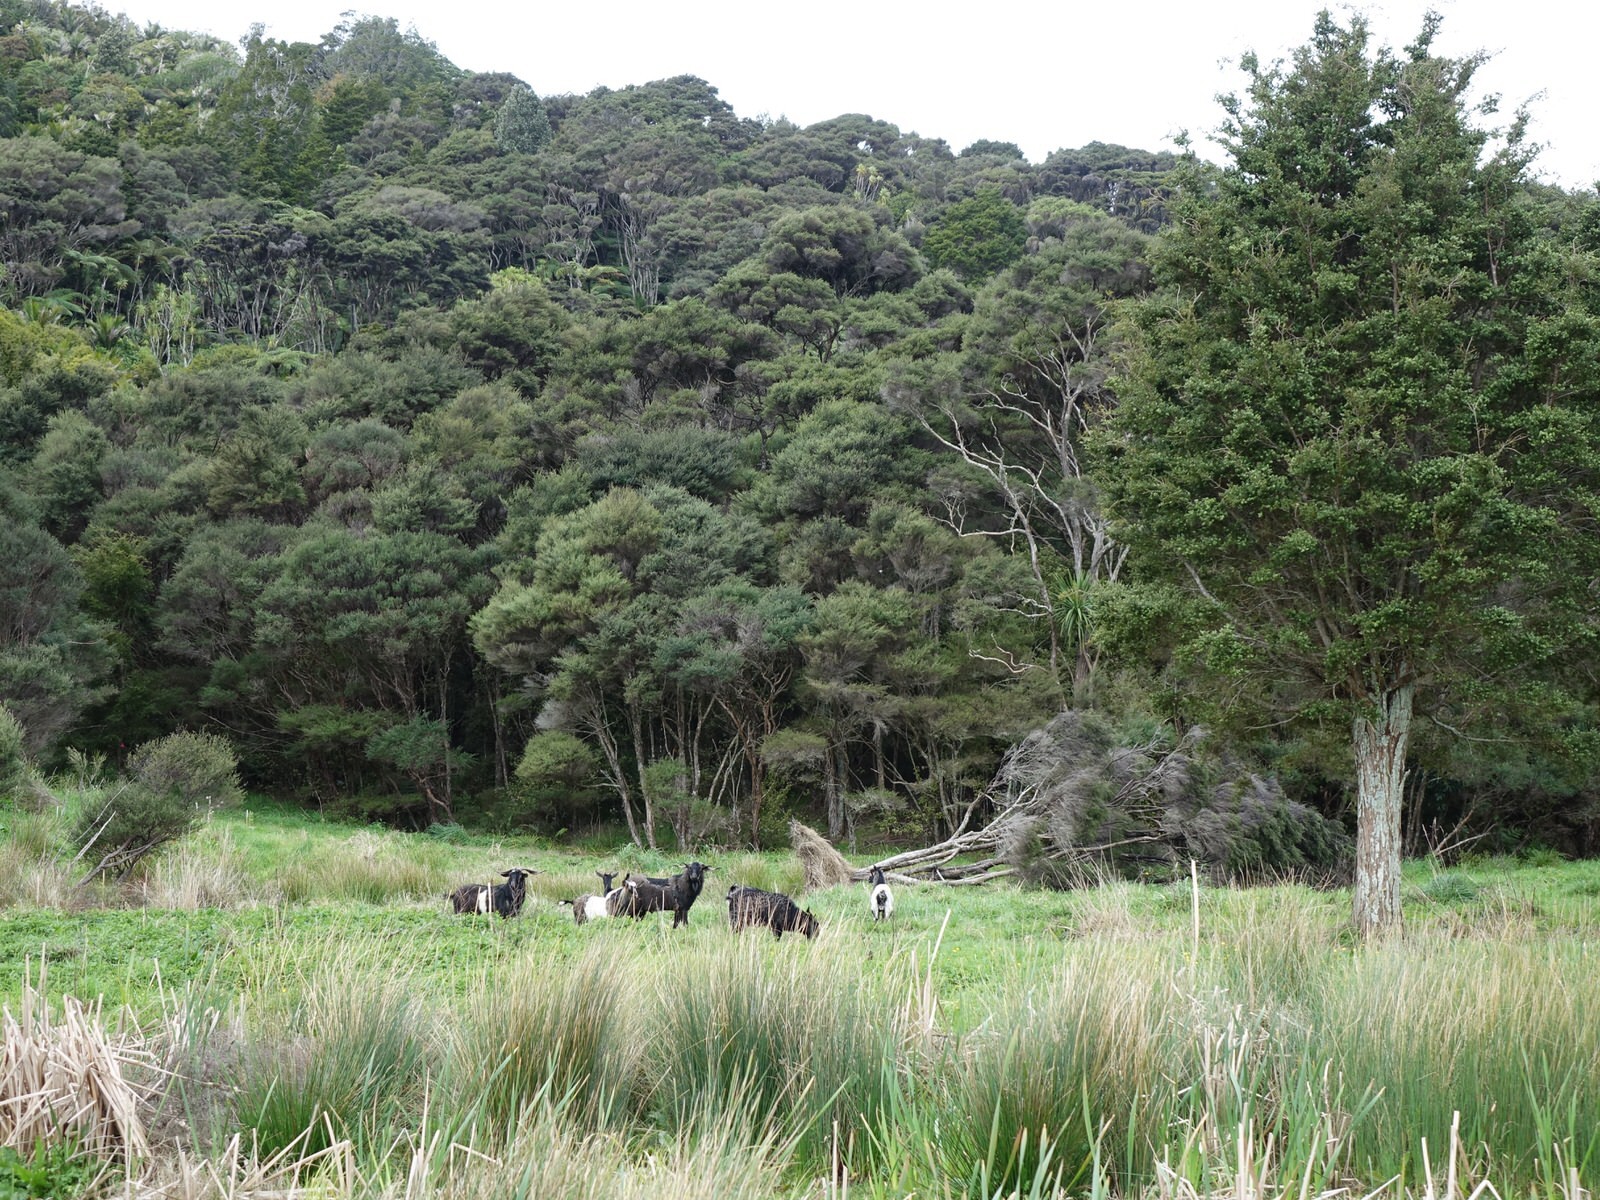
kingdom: Animalia
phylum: Chordata
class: Mammalia
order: Artiodactyla
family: Bovidae
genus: Capra
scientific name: Capra hircus
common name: Domestic goat
